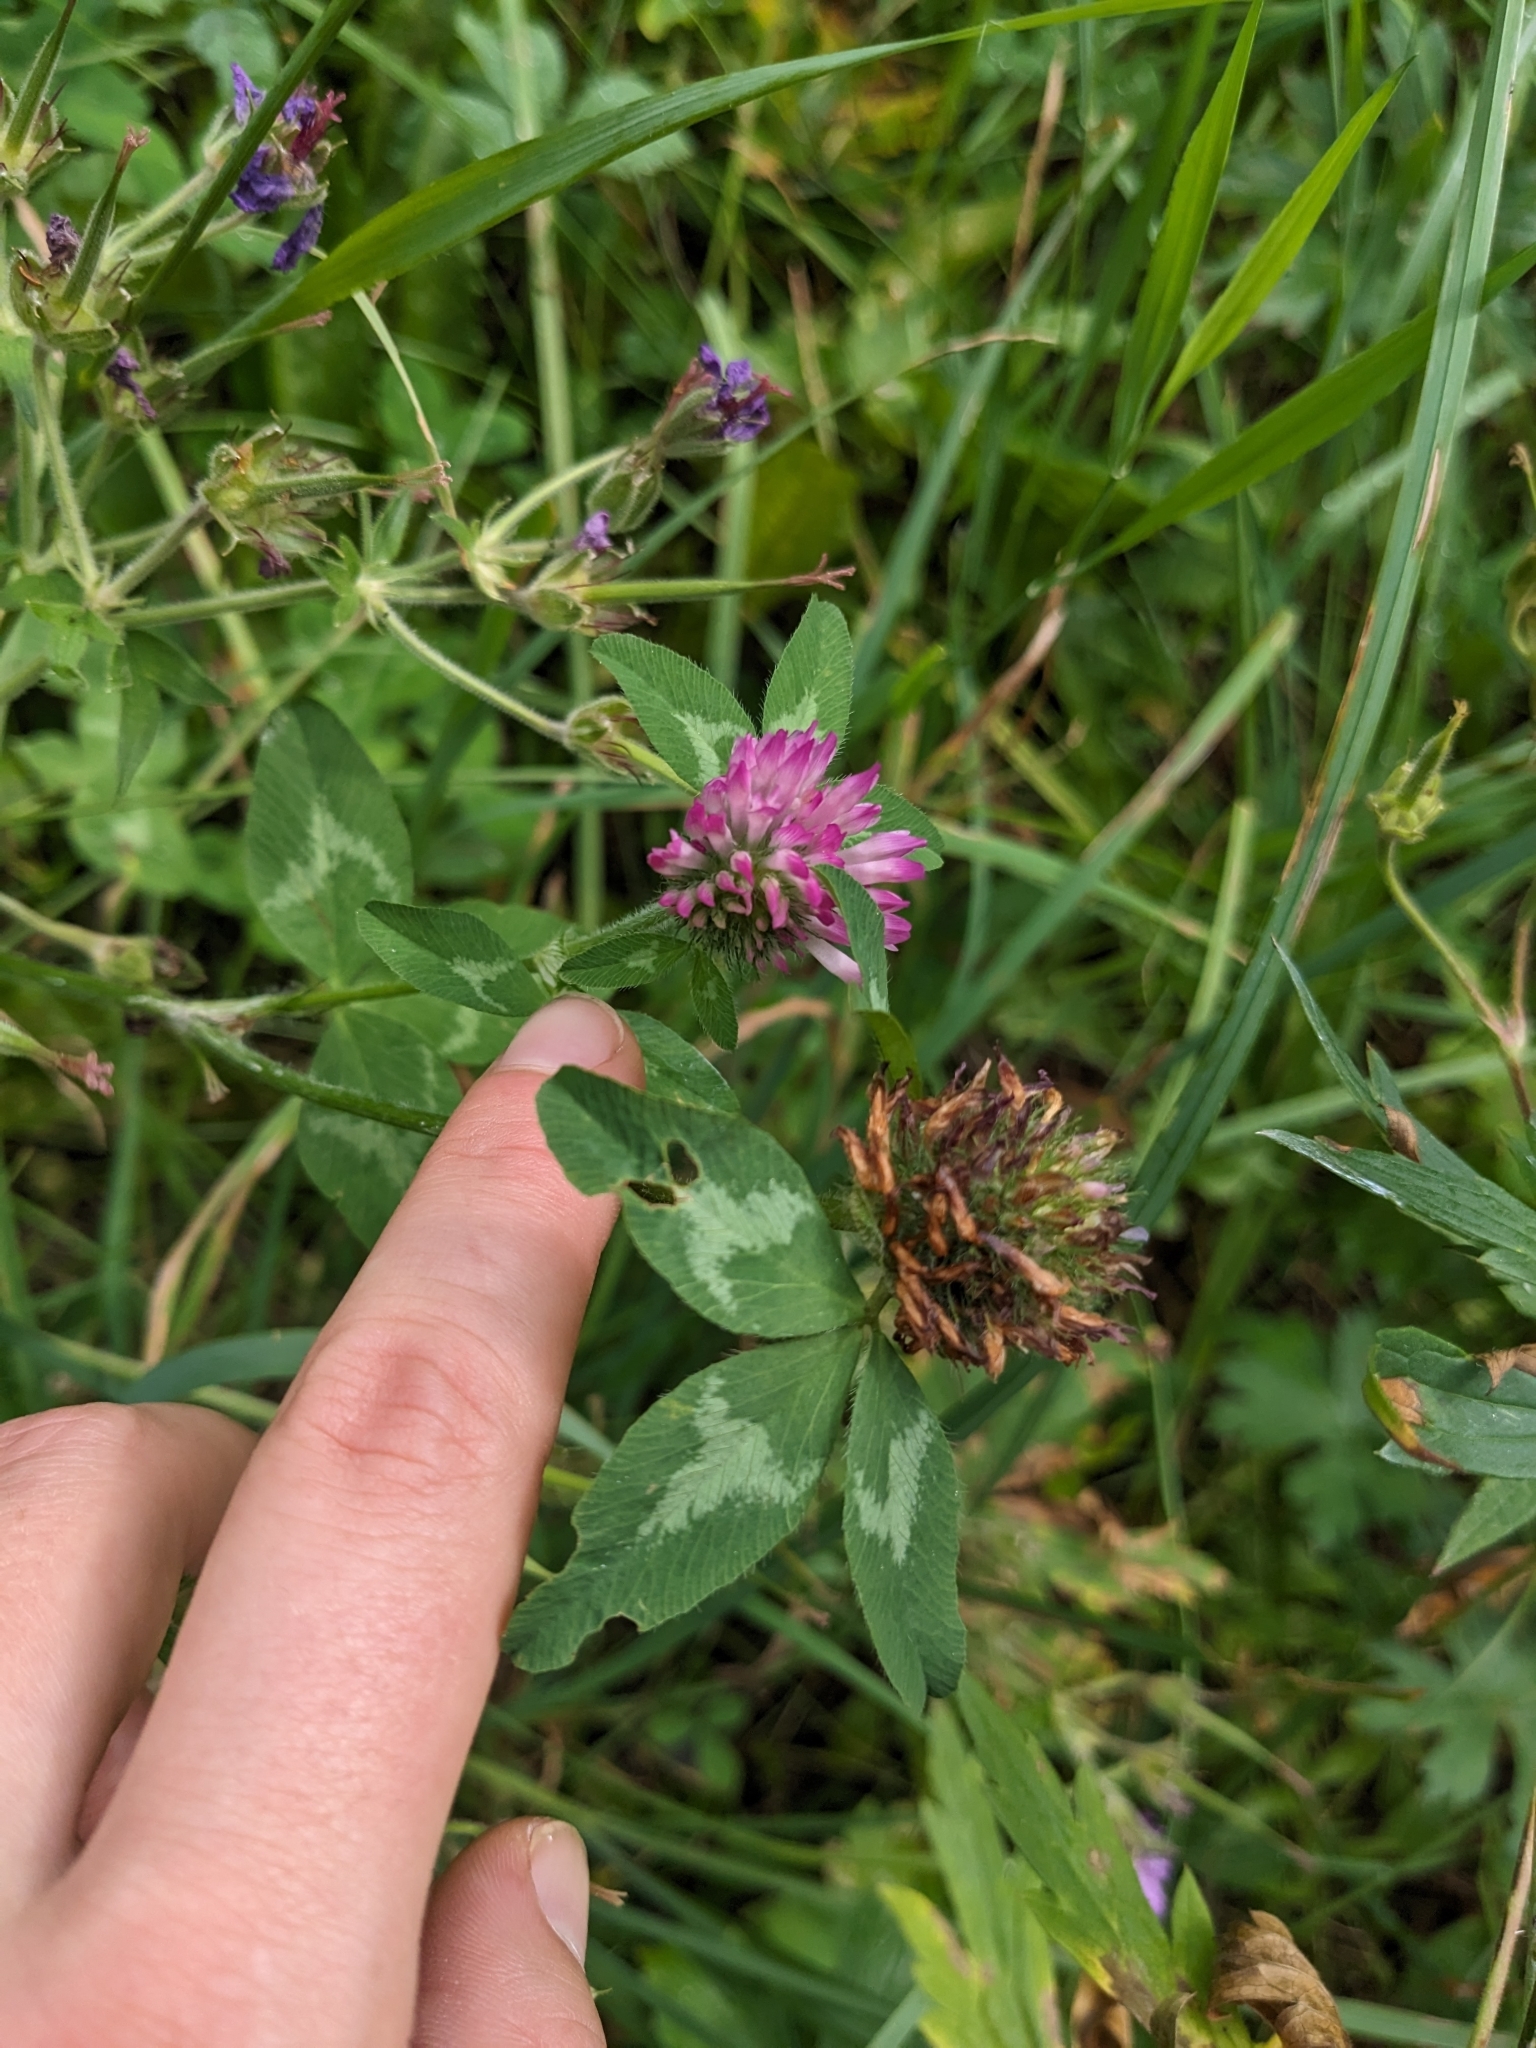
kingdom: Plantae
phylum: Tracheophyta
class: Magnoliopsida
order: Fabales
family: Fabaceae
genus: Trifolium
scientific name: Trifolium pratense
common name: Red clover
